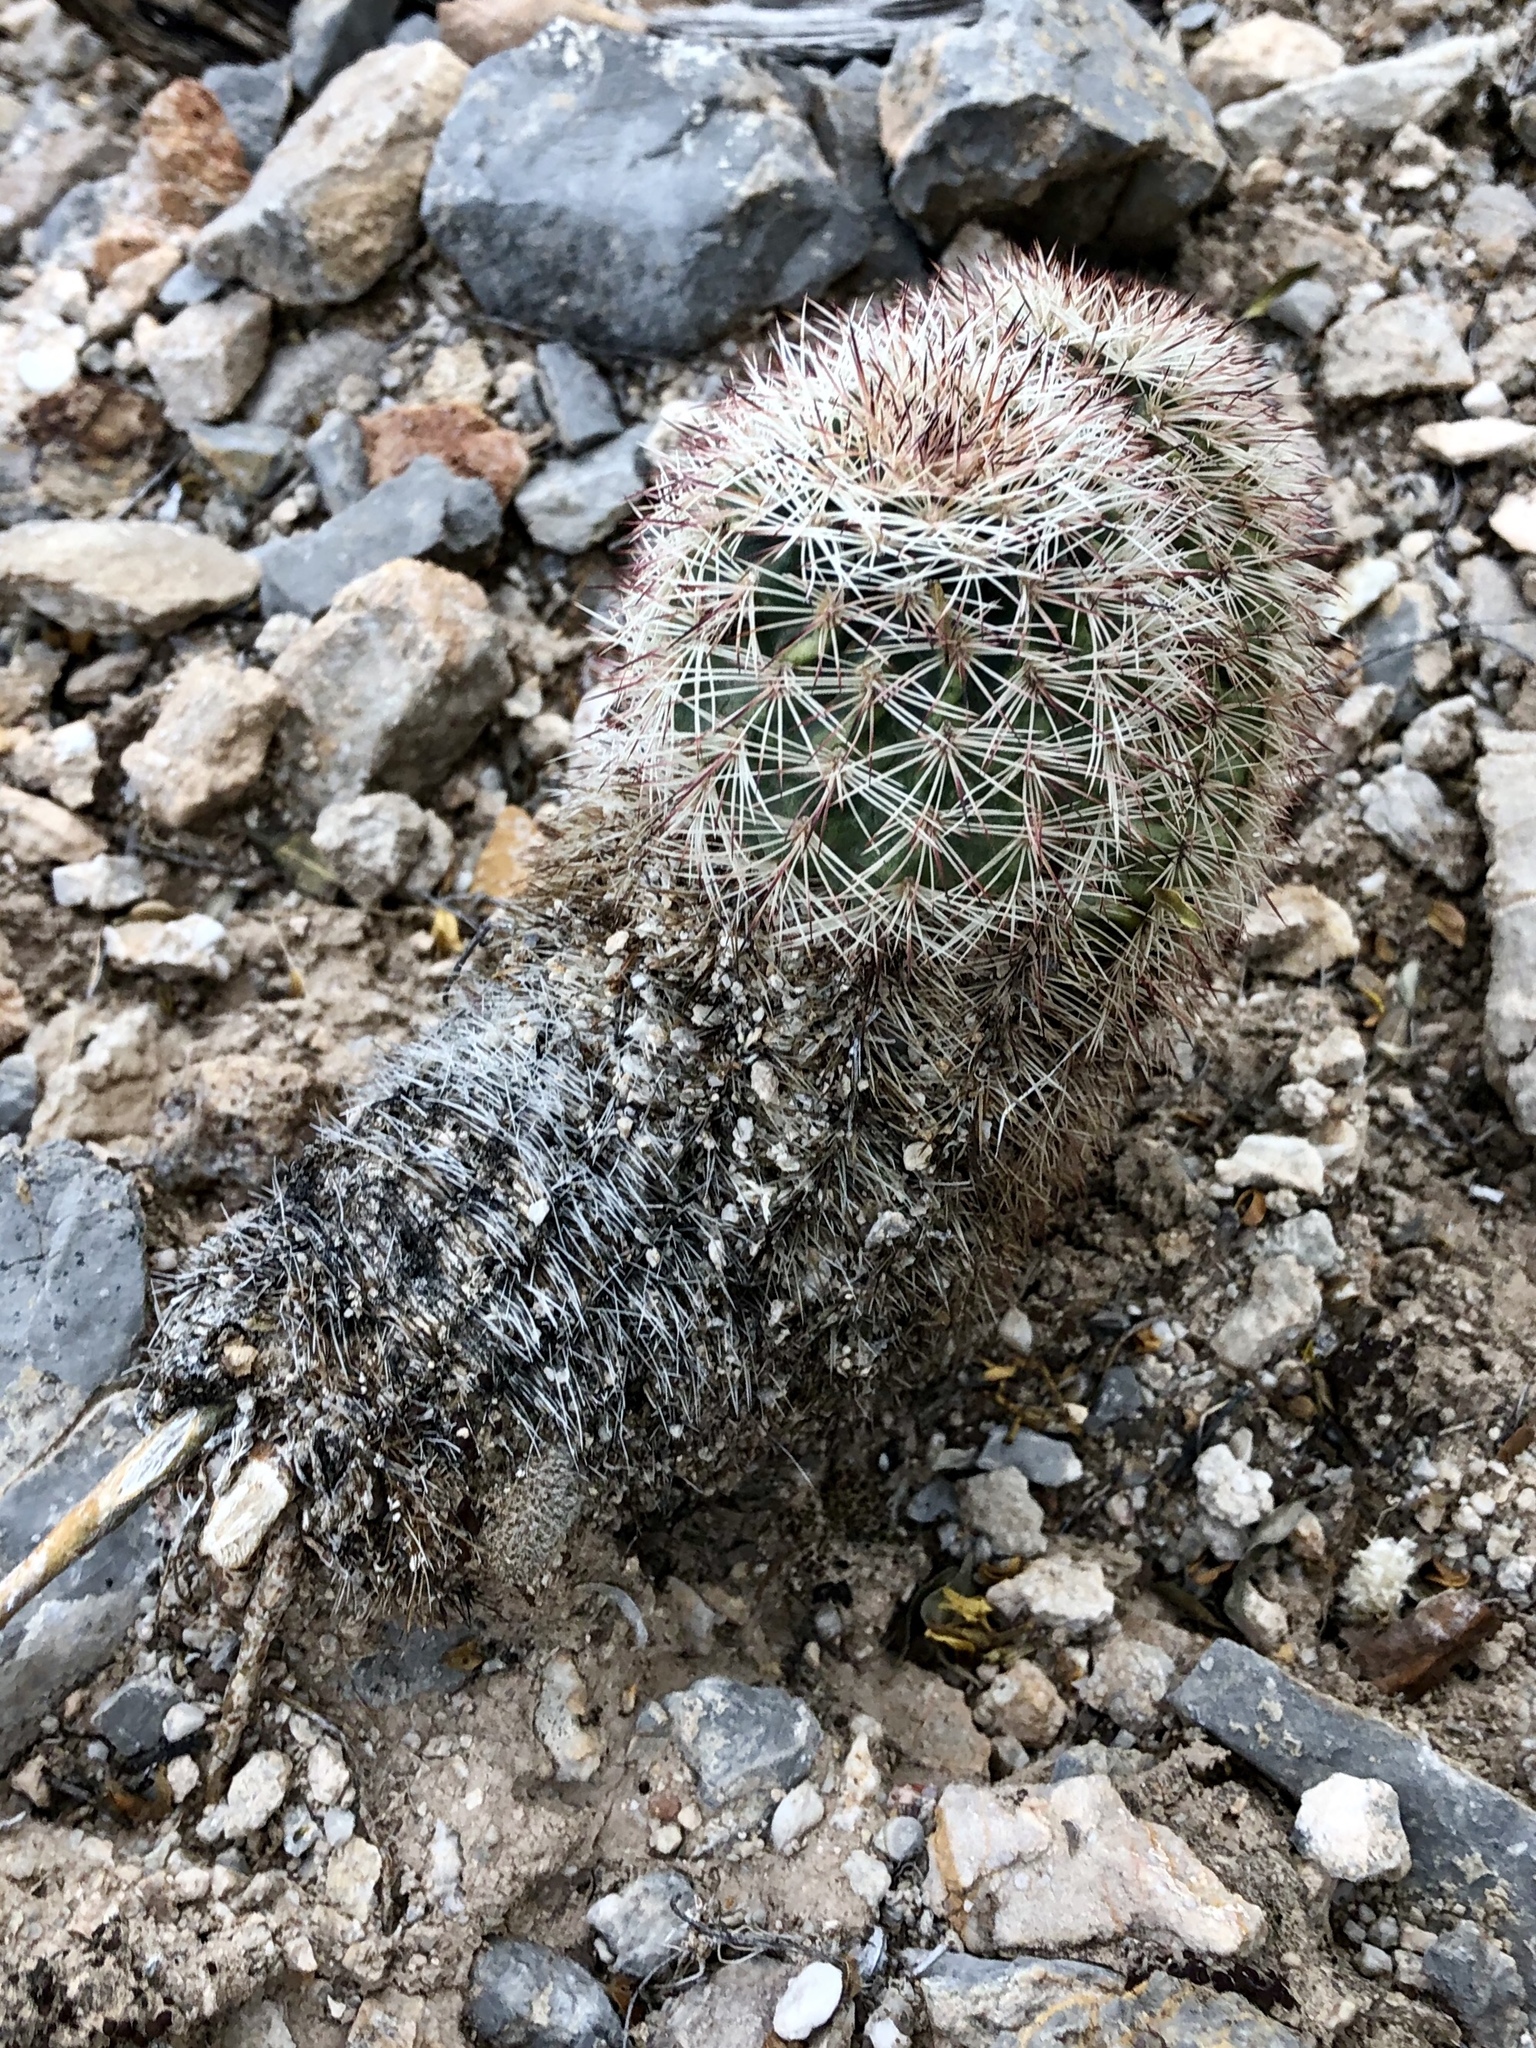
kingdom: Plantae
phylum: Tracheophyta
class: Magnoliopsida
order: Caryophyllales
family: Cactaceae
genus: Echinocereus
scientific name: Echinocereus dasyacanthus
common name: Spiny hedgehog cactus
